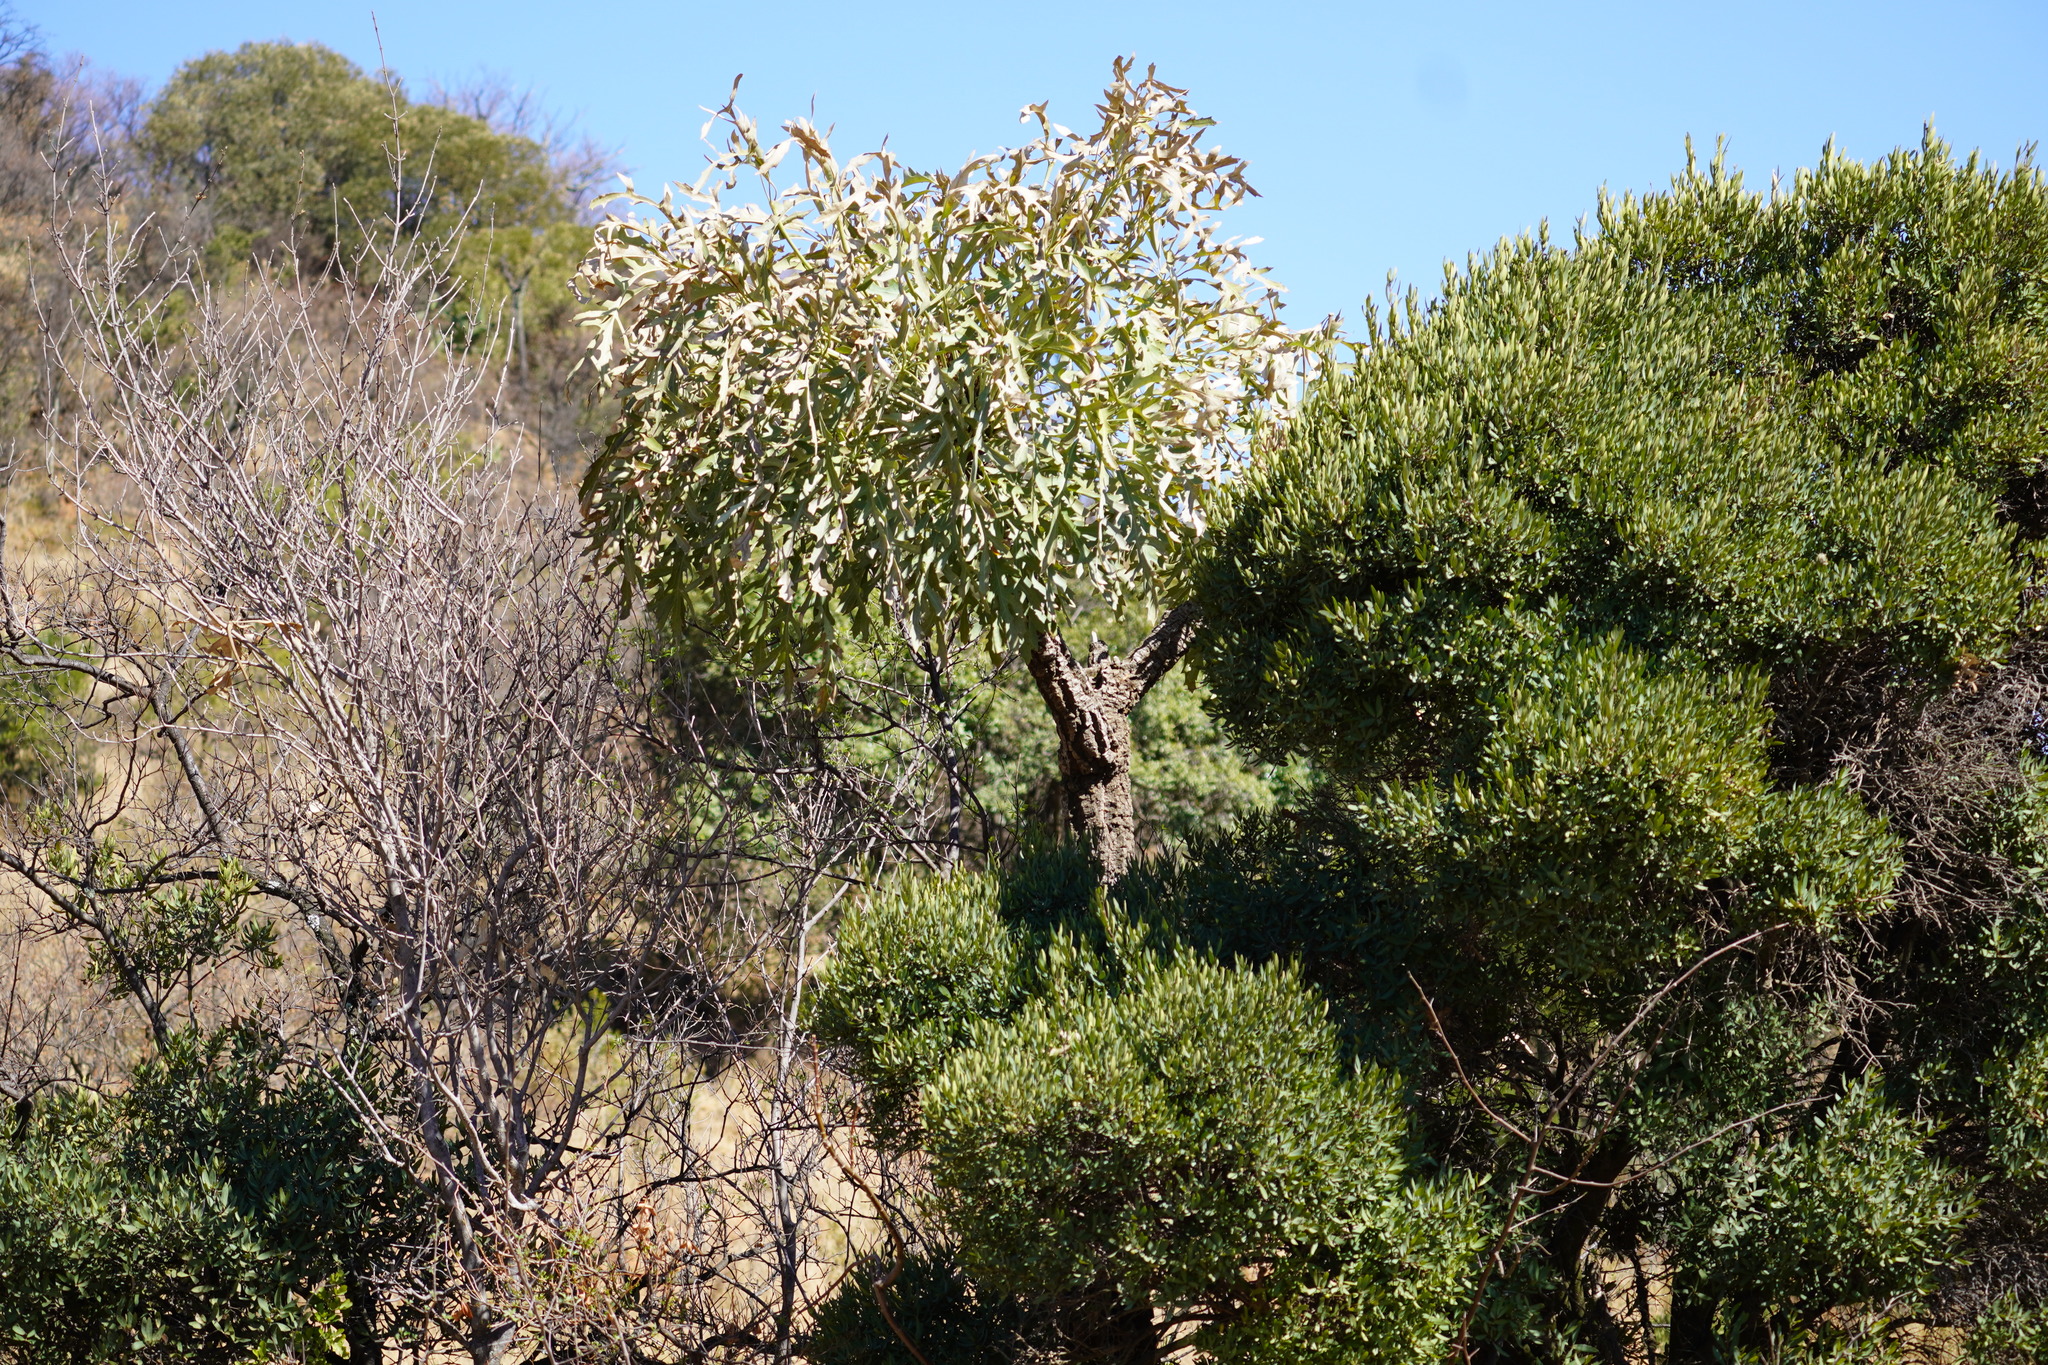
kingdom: Plantae
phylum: Tracheophyta
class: Magnoliopsida
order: Apiales
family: Araliaceae
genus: Cussonia
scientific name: Cussonia paniculata
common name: Cabbagetree
